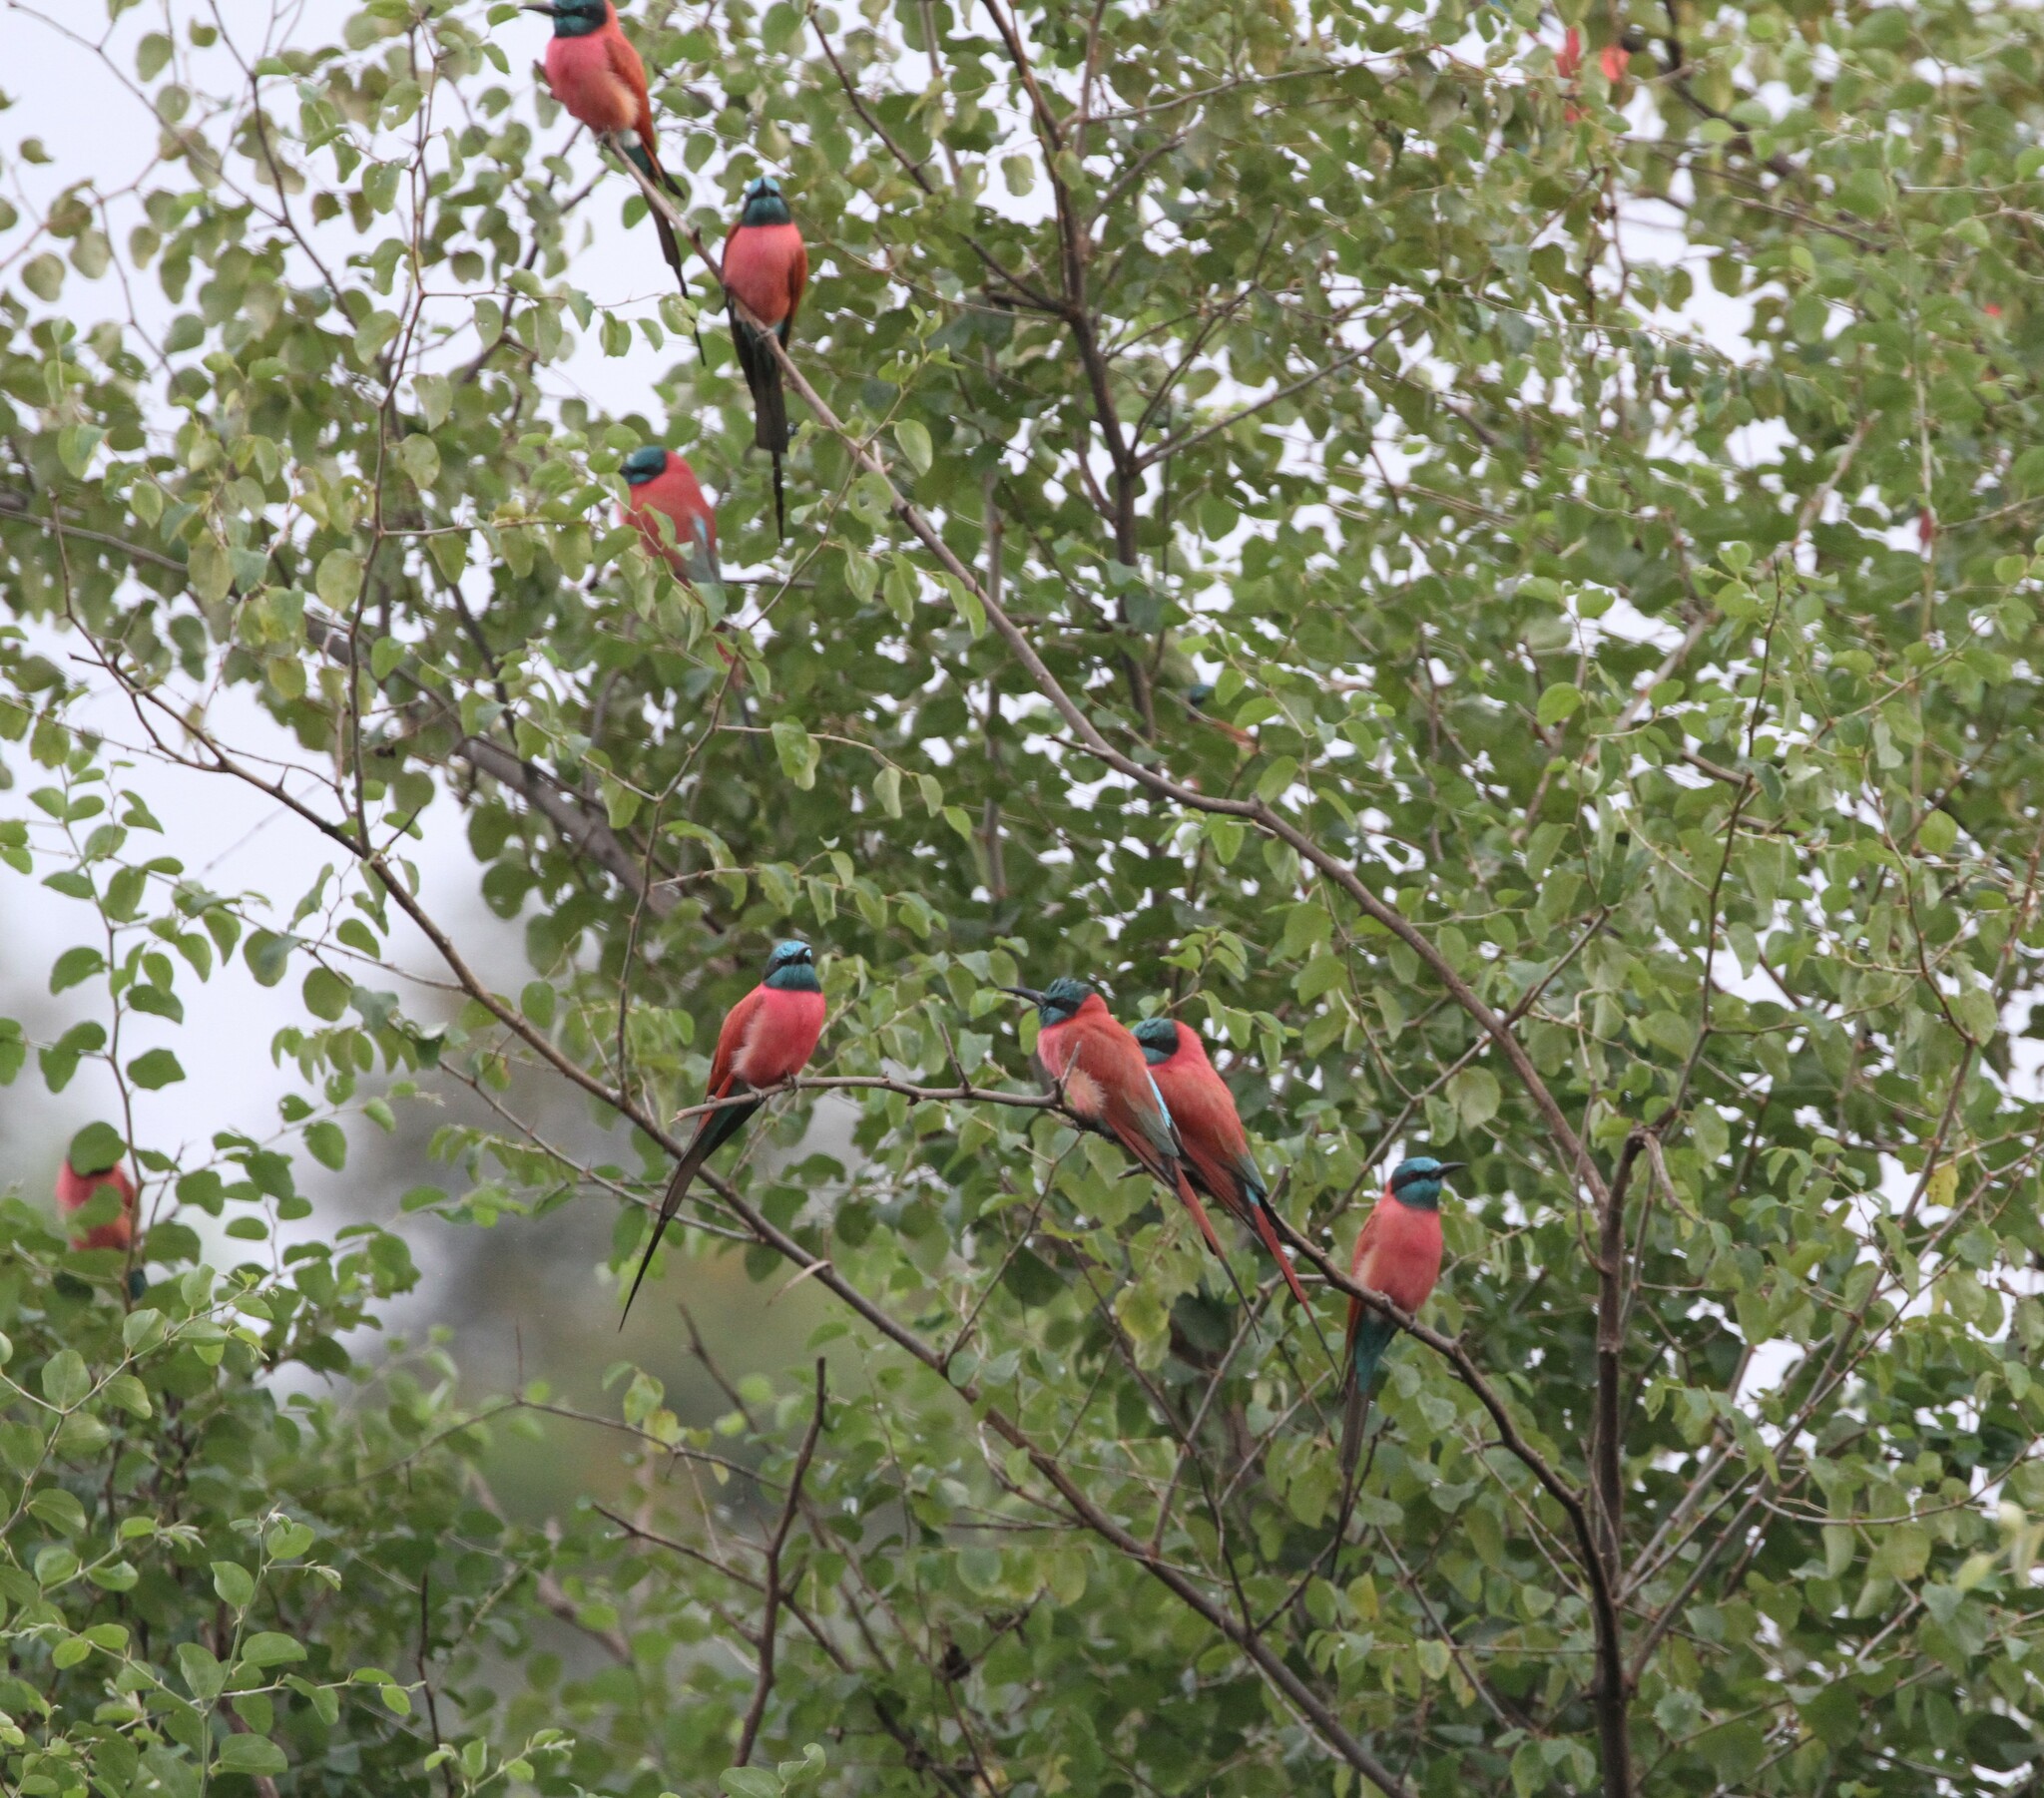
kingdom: Animalia
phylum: Chordata
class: Aves
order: Coraciiformes
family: Meropidae
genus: Merops
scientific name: Merops nubicus
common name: Northern carmine bee-eater
